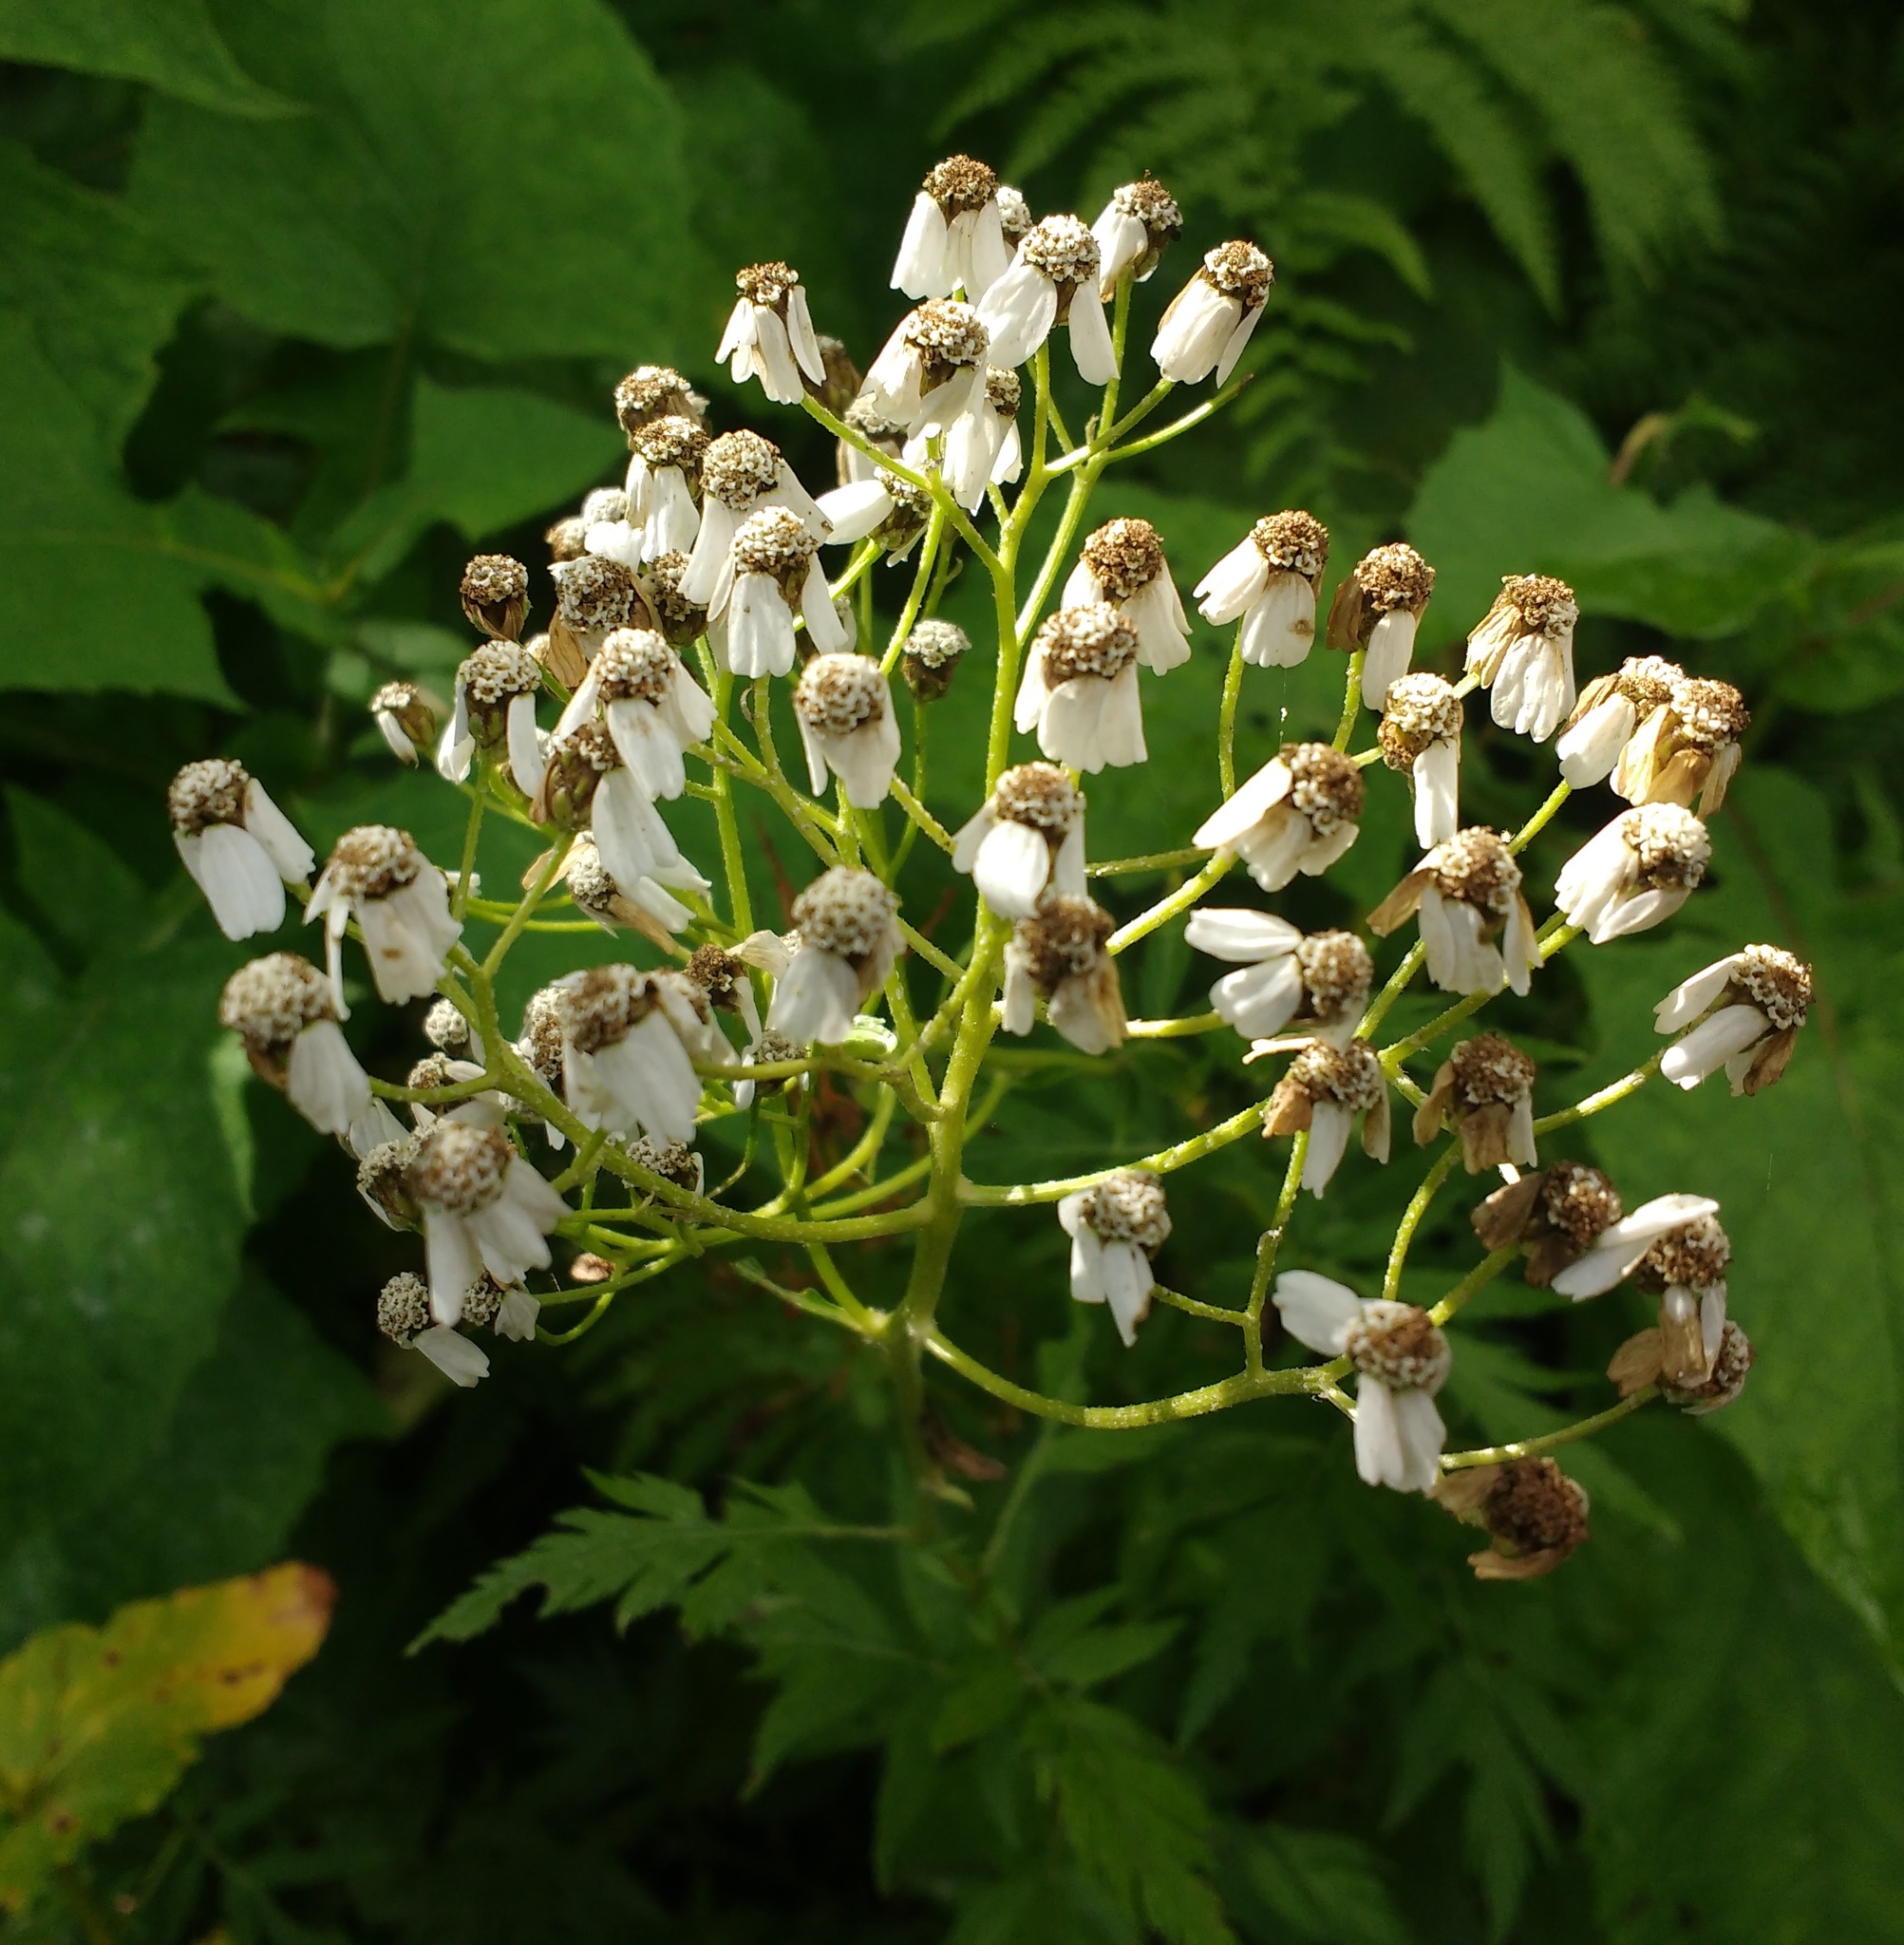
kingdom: Plantae
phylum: Tracheophyta
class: Magnoliopsida
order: Asterales
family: Asteraceae
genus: Achillea
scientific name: Achillea macrophylla
